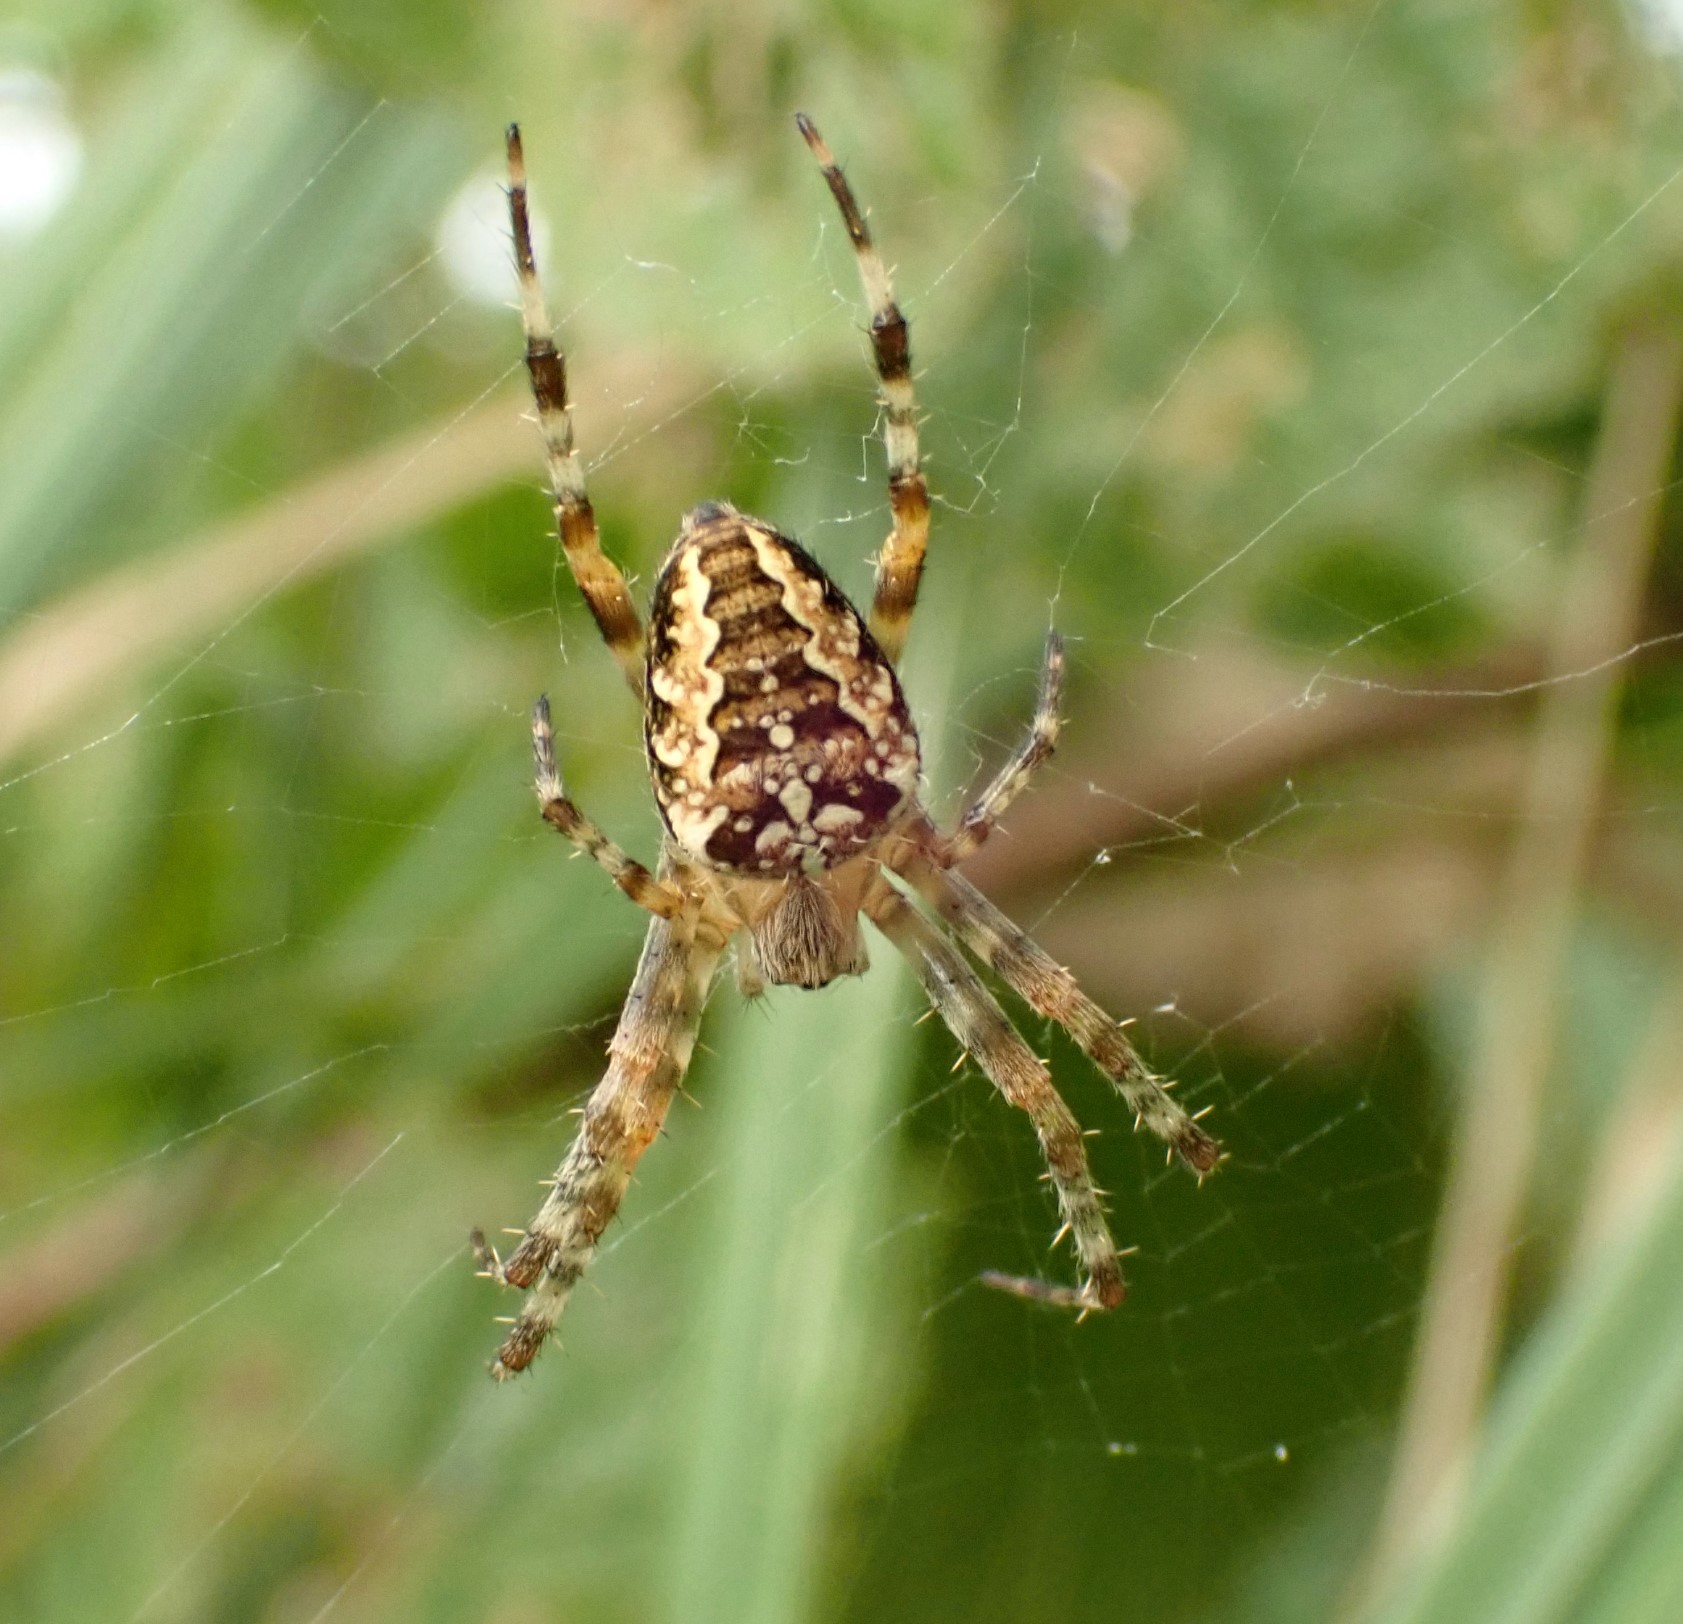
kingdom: Animalia
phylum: Arthropoda
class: Arachnida
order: Araneae
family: Araneidae
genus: Araneus
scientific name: Araneus diadematus
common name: Cross orbweaver
